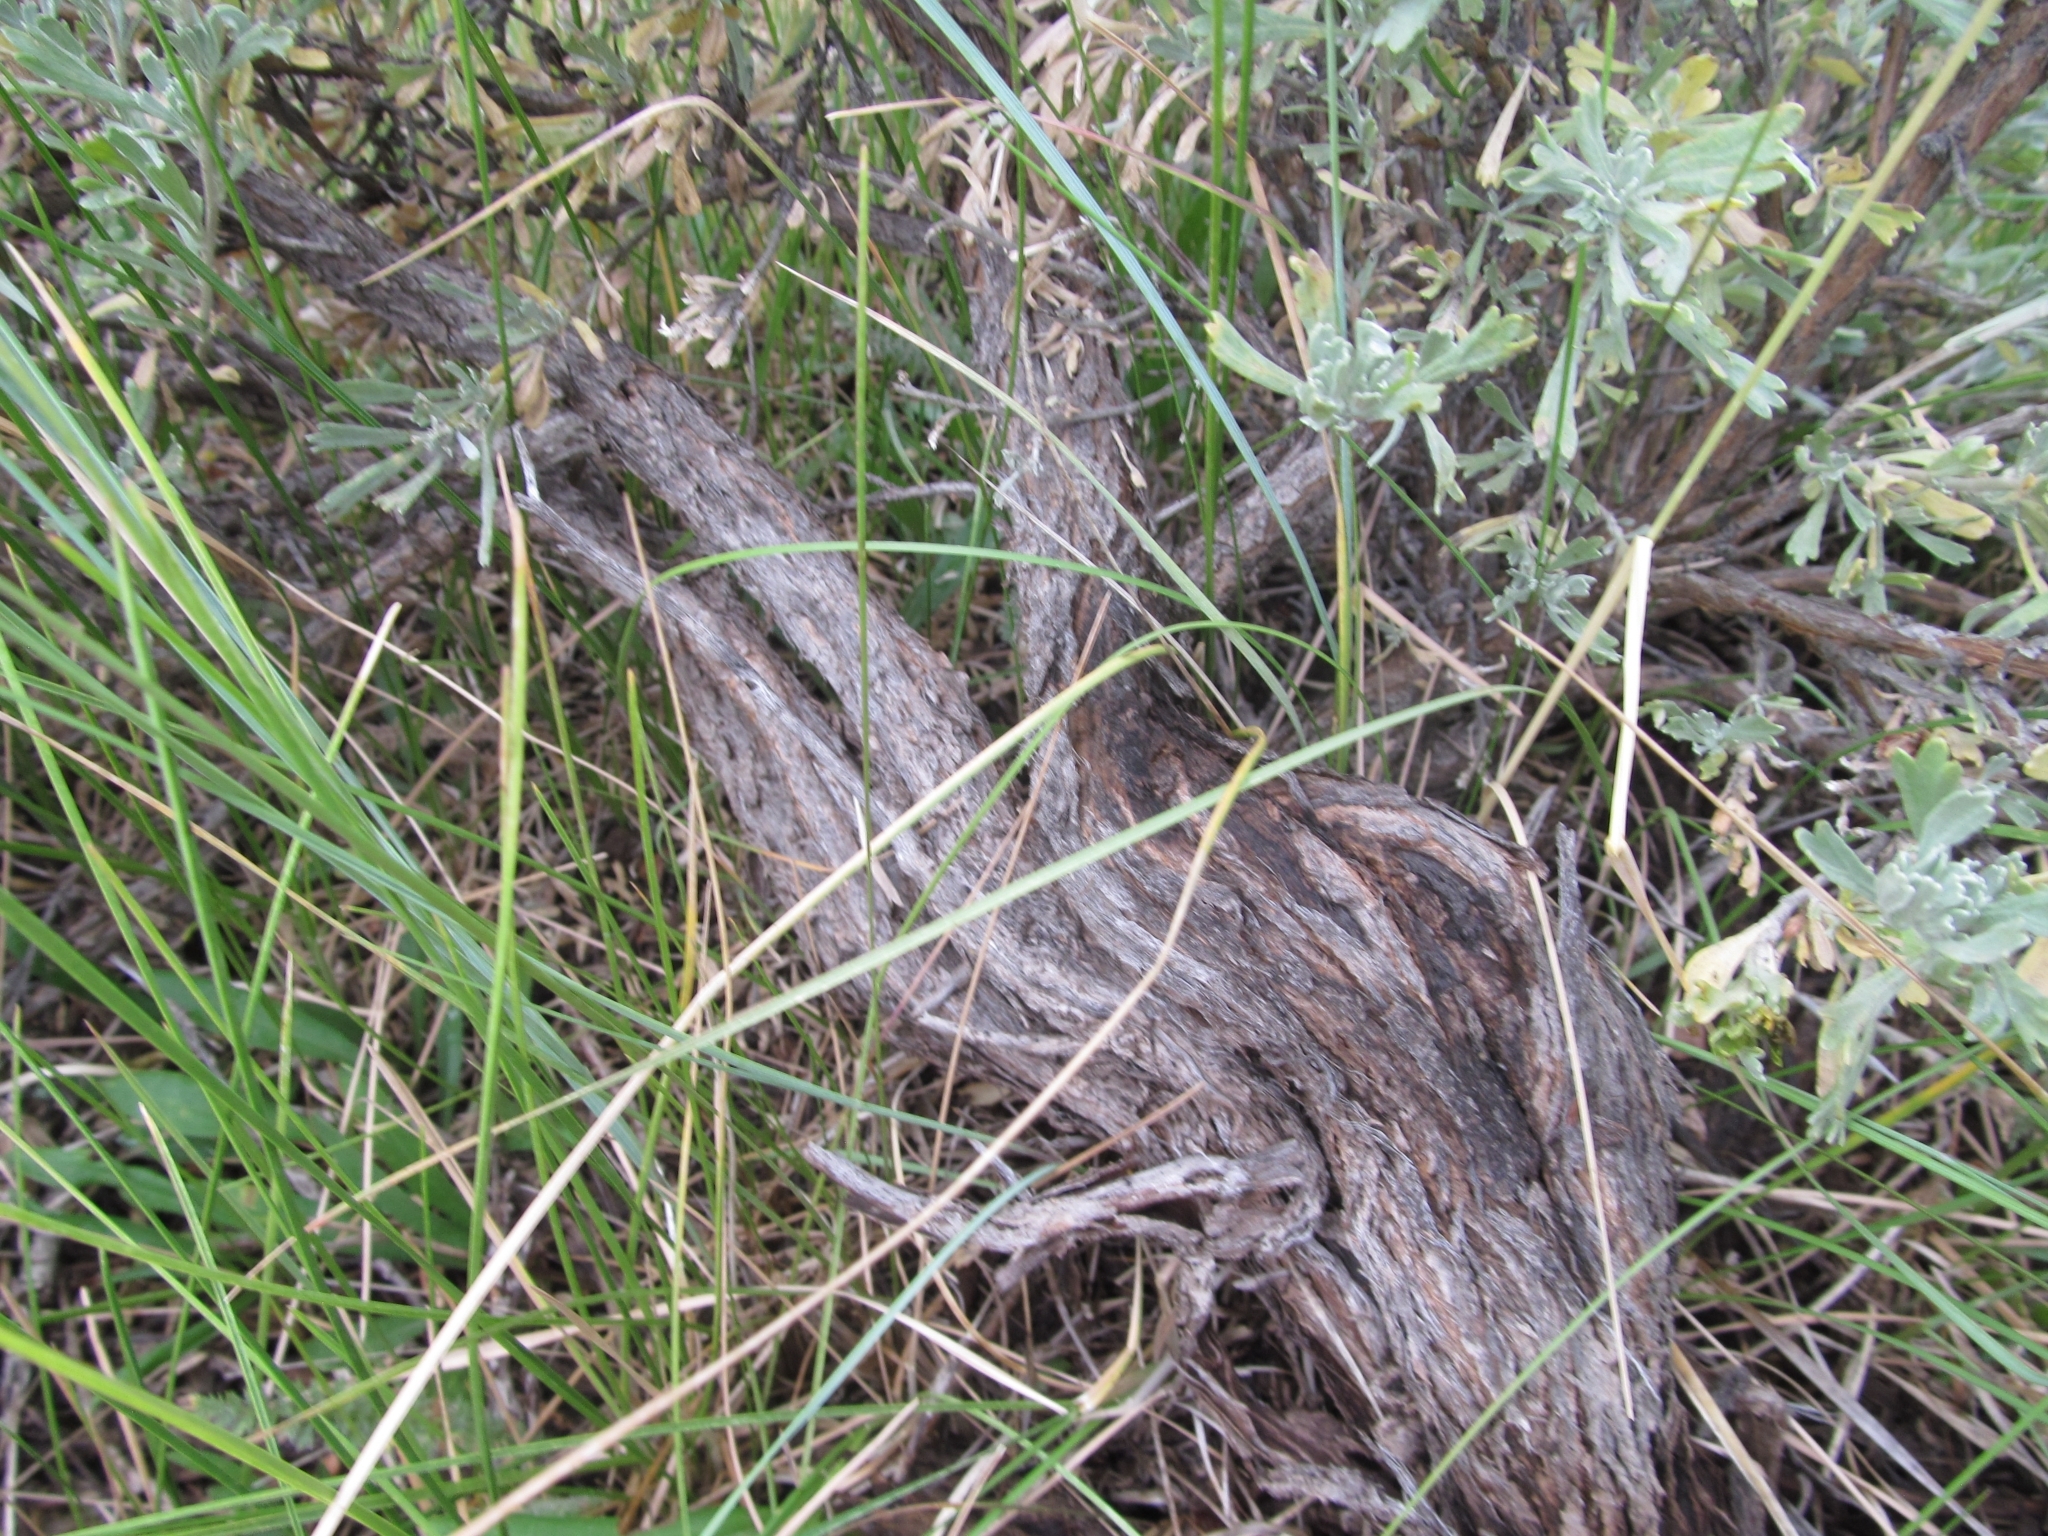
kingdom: Plantae
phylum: Tracheophyta
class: Magnoliopsida
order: Asterales
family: Asteraceae
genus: Artemisia
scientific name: Artemisia tridentata
